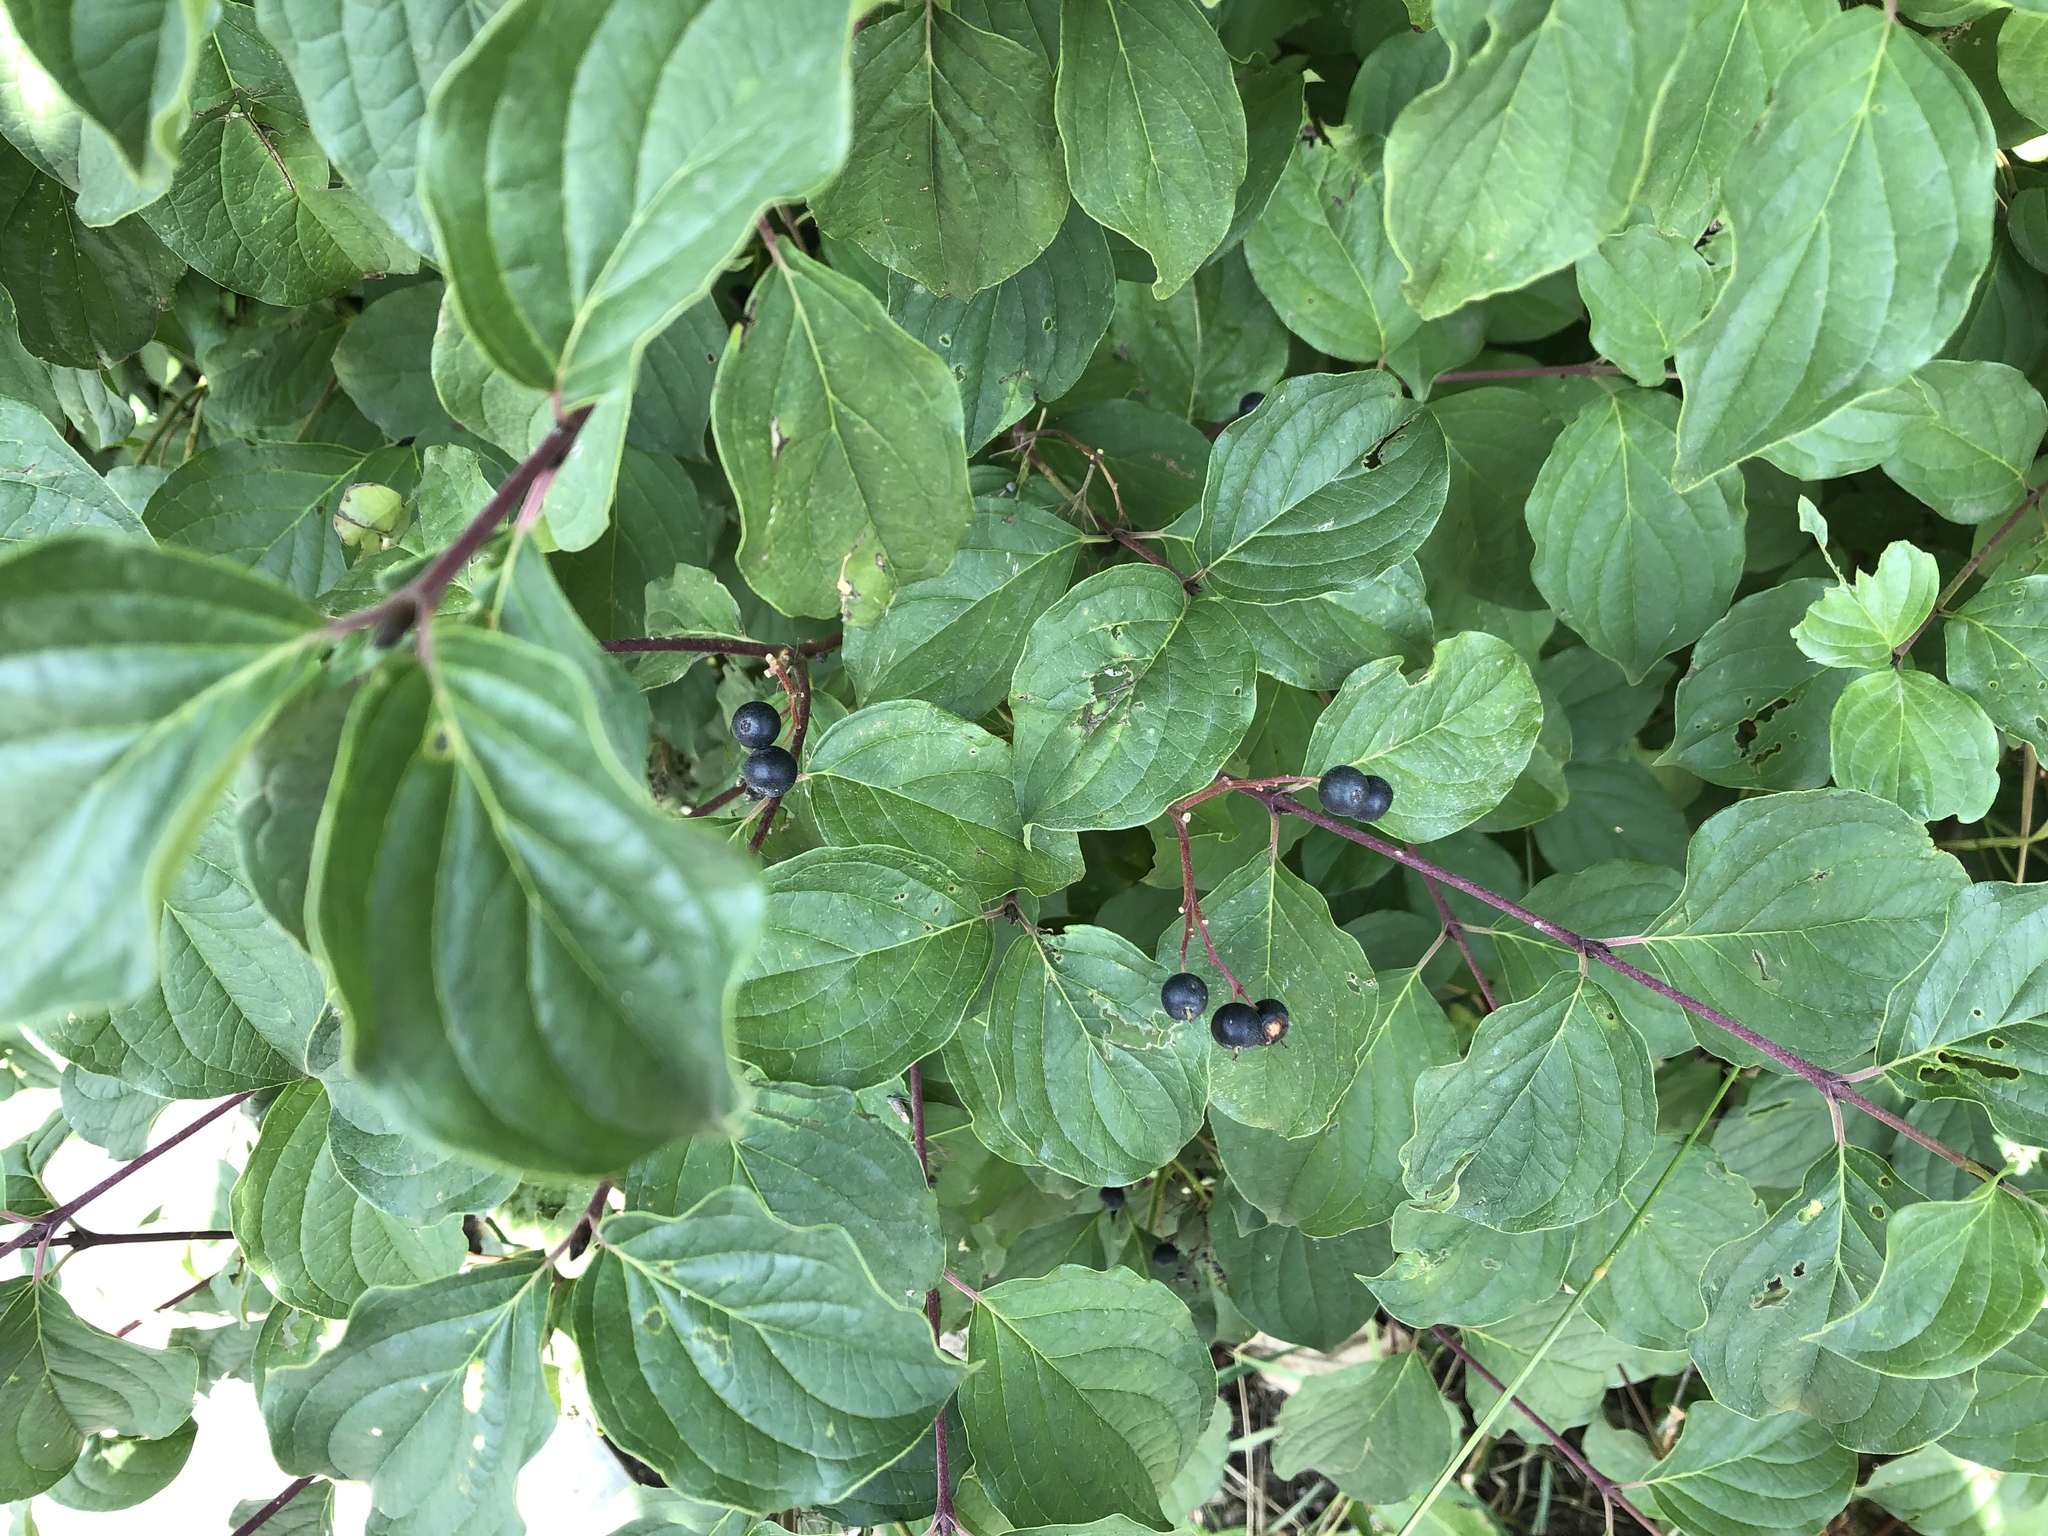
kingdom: Plantae
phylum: Tracheophyta
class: Magnoliopsida
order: Cornales
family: Cornaceae
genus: Cornus
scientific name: Cornus sanguinea
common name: Dogwood
